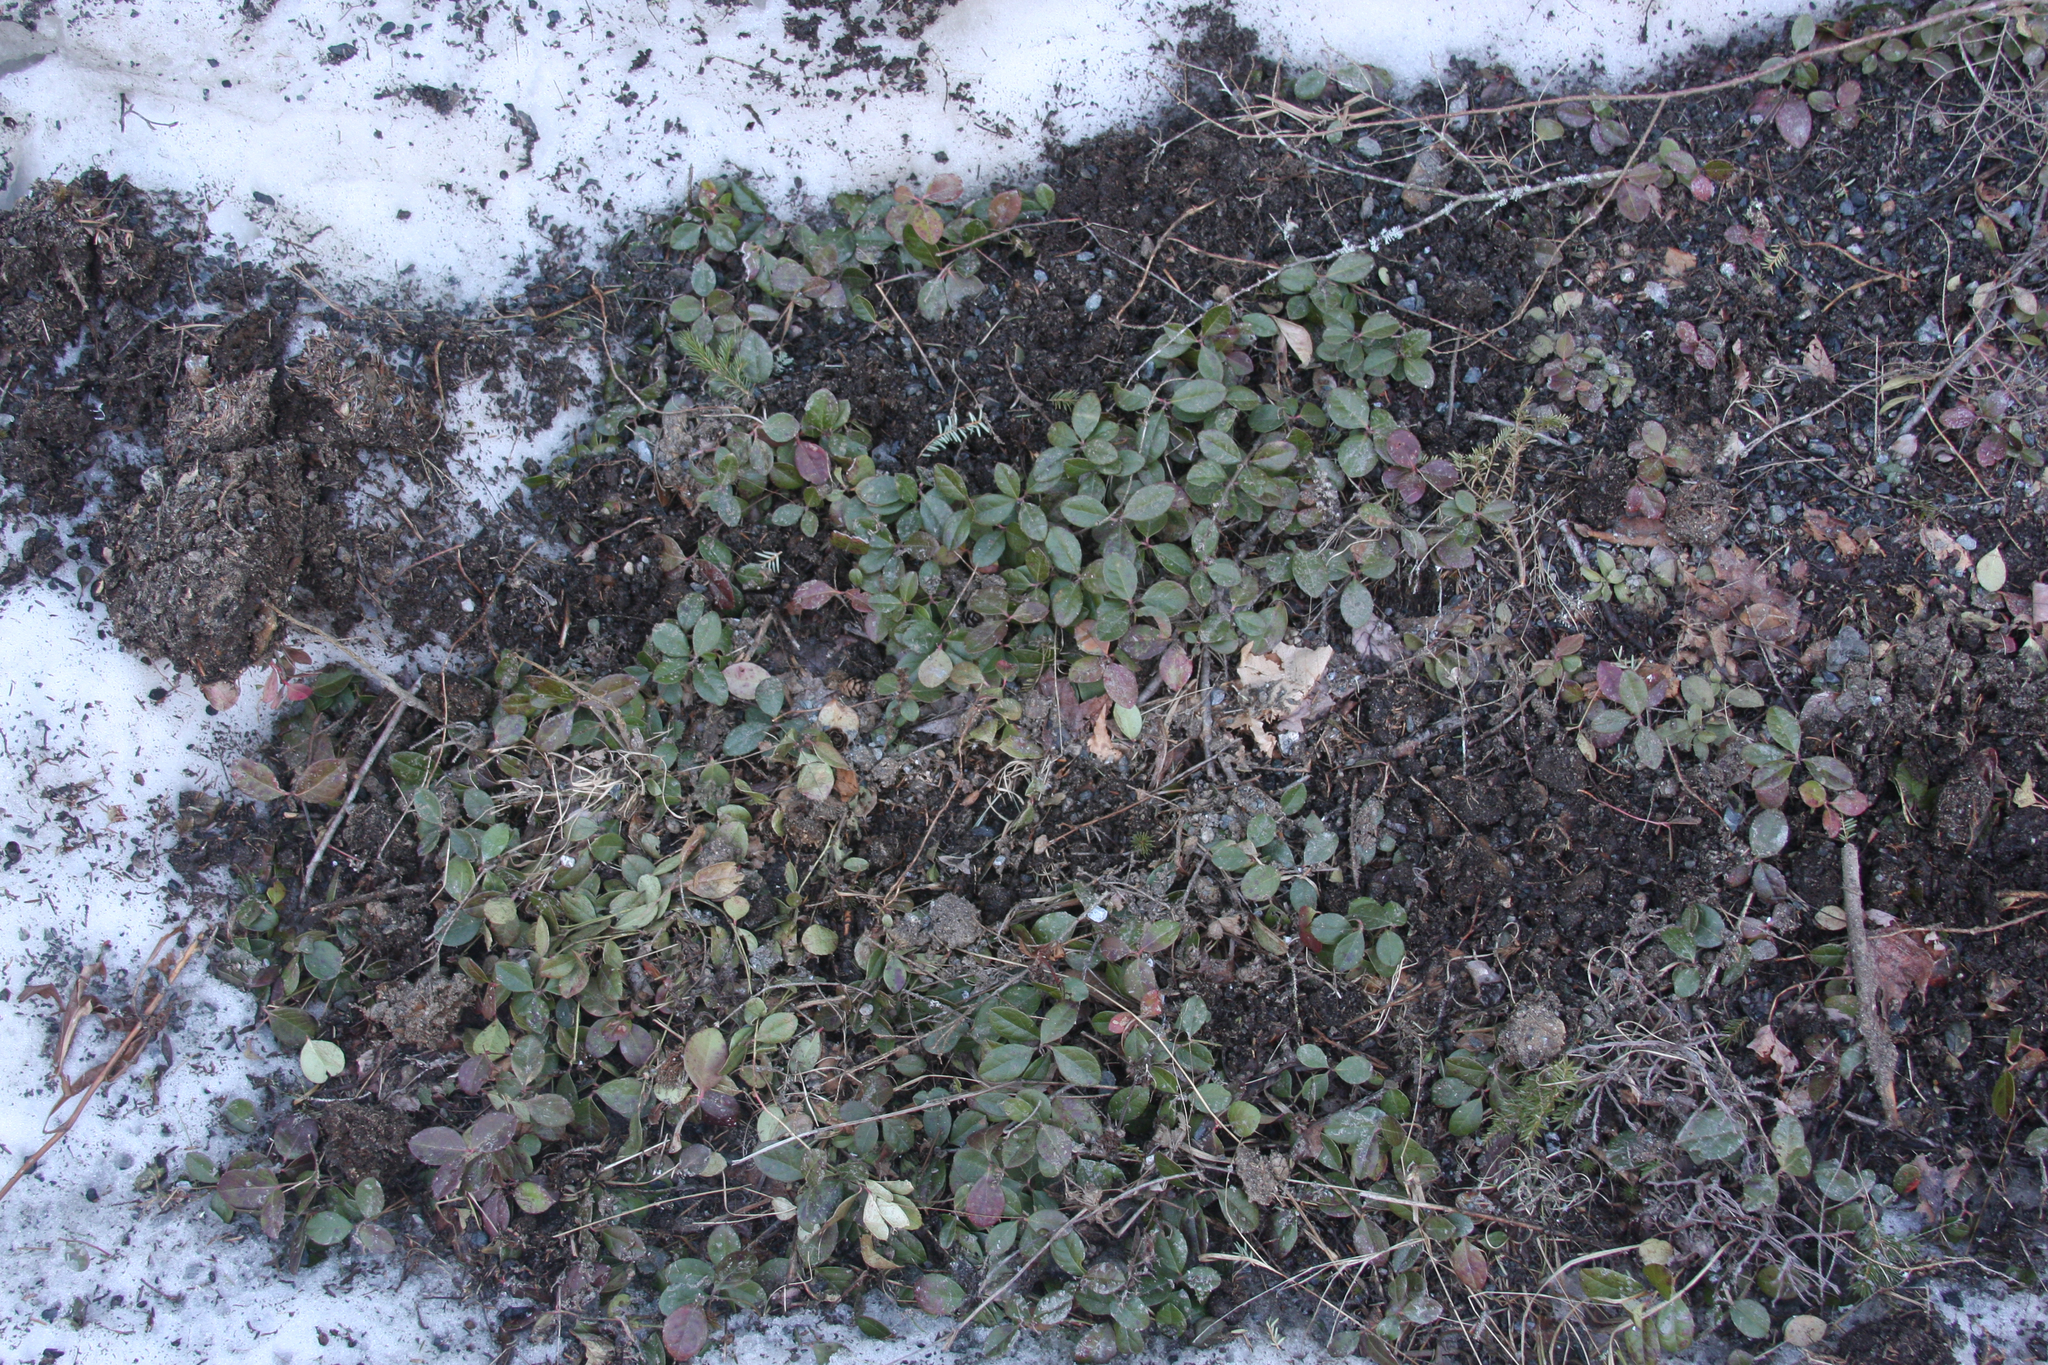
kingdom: Plantae
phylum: Tracheophyta
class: Magnoliopsida
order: Ericales
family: Ericaceae
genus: Gaultheria
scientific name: Gaultheria procumbens
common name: Checkerberry
